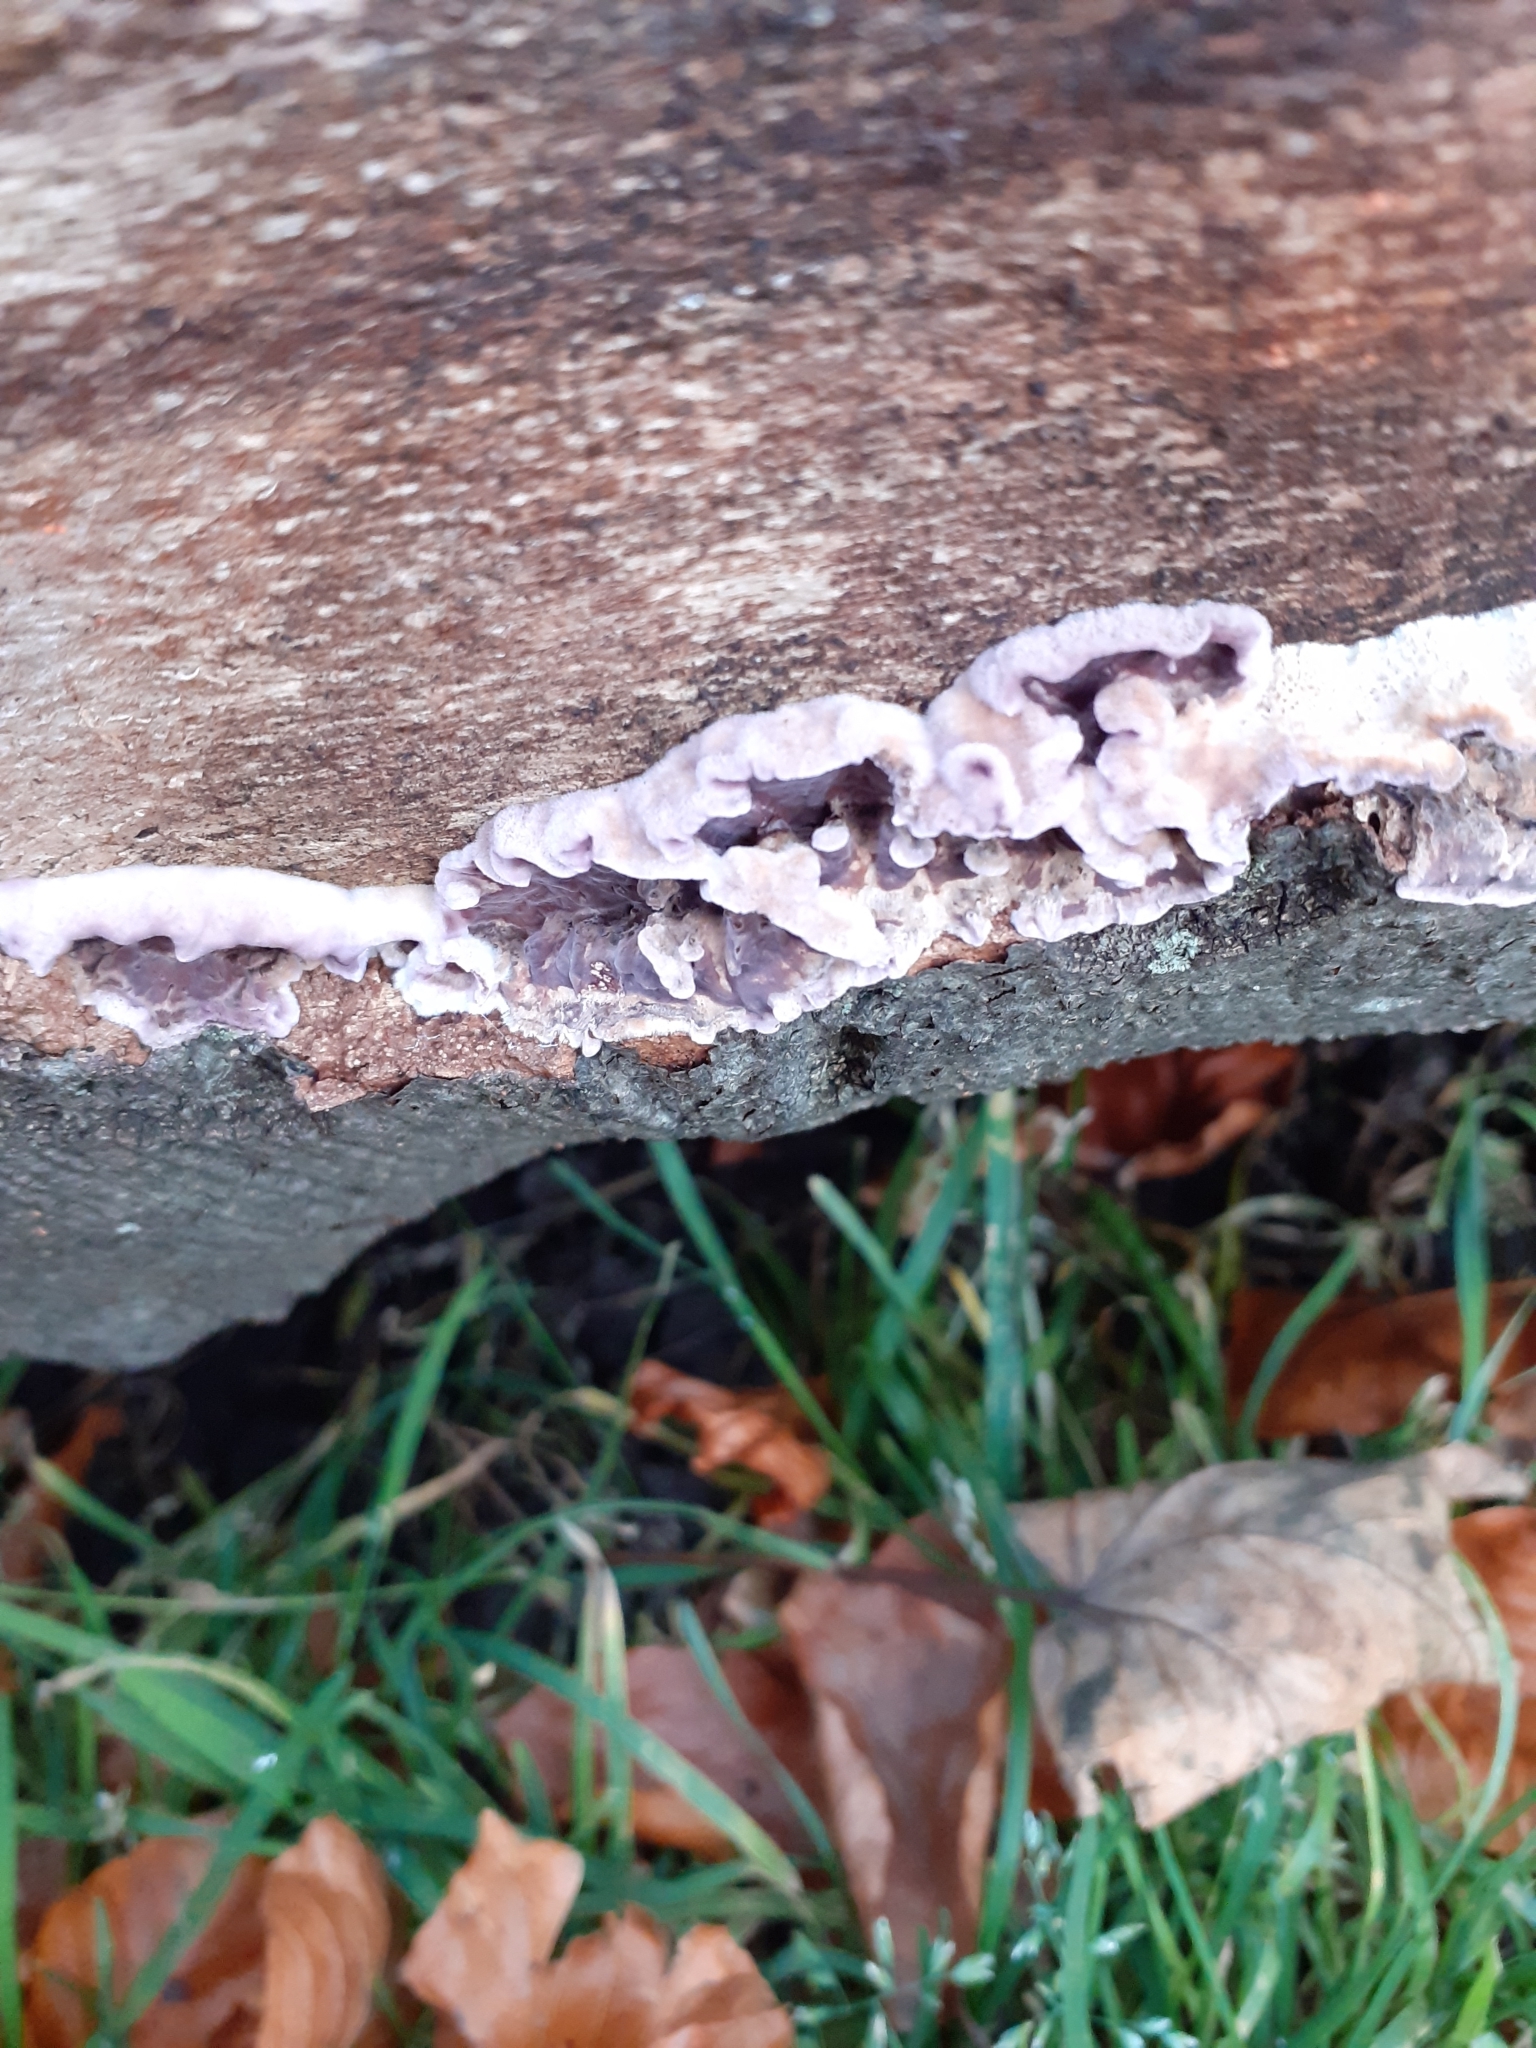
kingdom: Fungi
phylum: Basidiomycota
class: Agaricomycetes
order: Agaricales
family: Cyphellaceae
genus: Chondrostereum
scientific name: Chondrostereum purpureum
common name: Silver leaf disease
